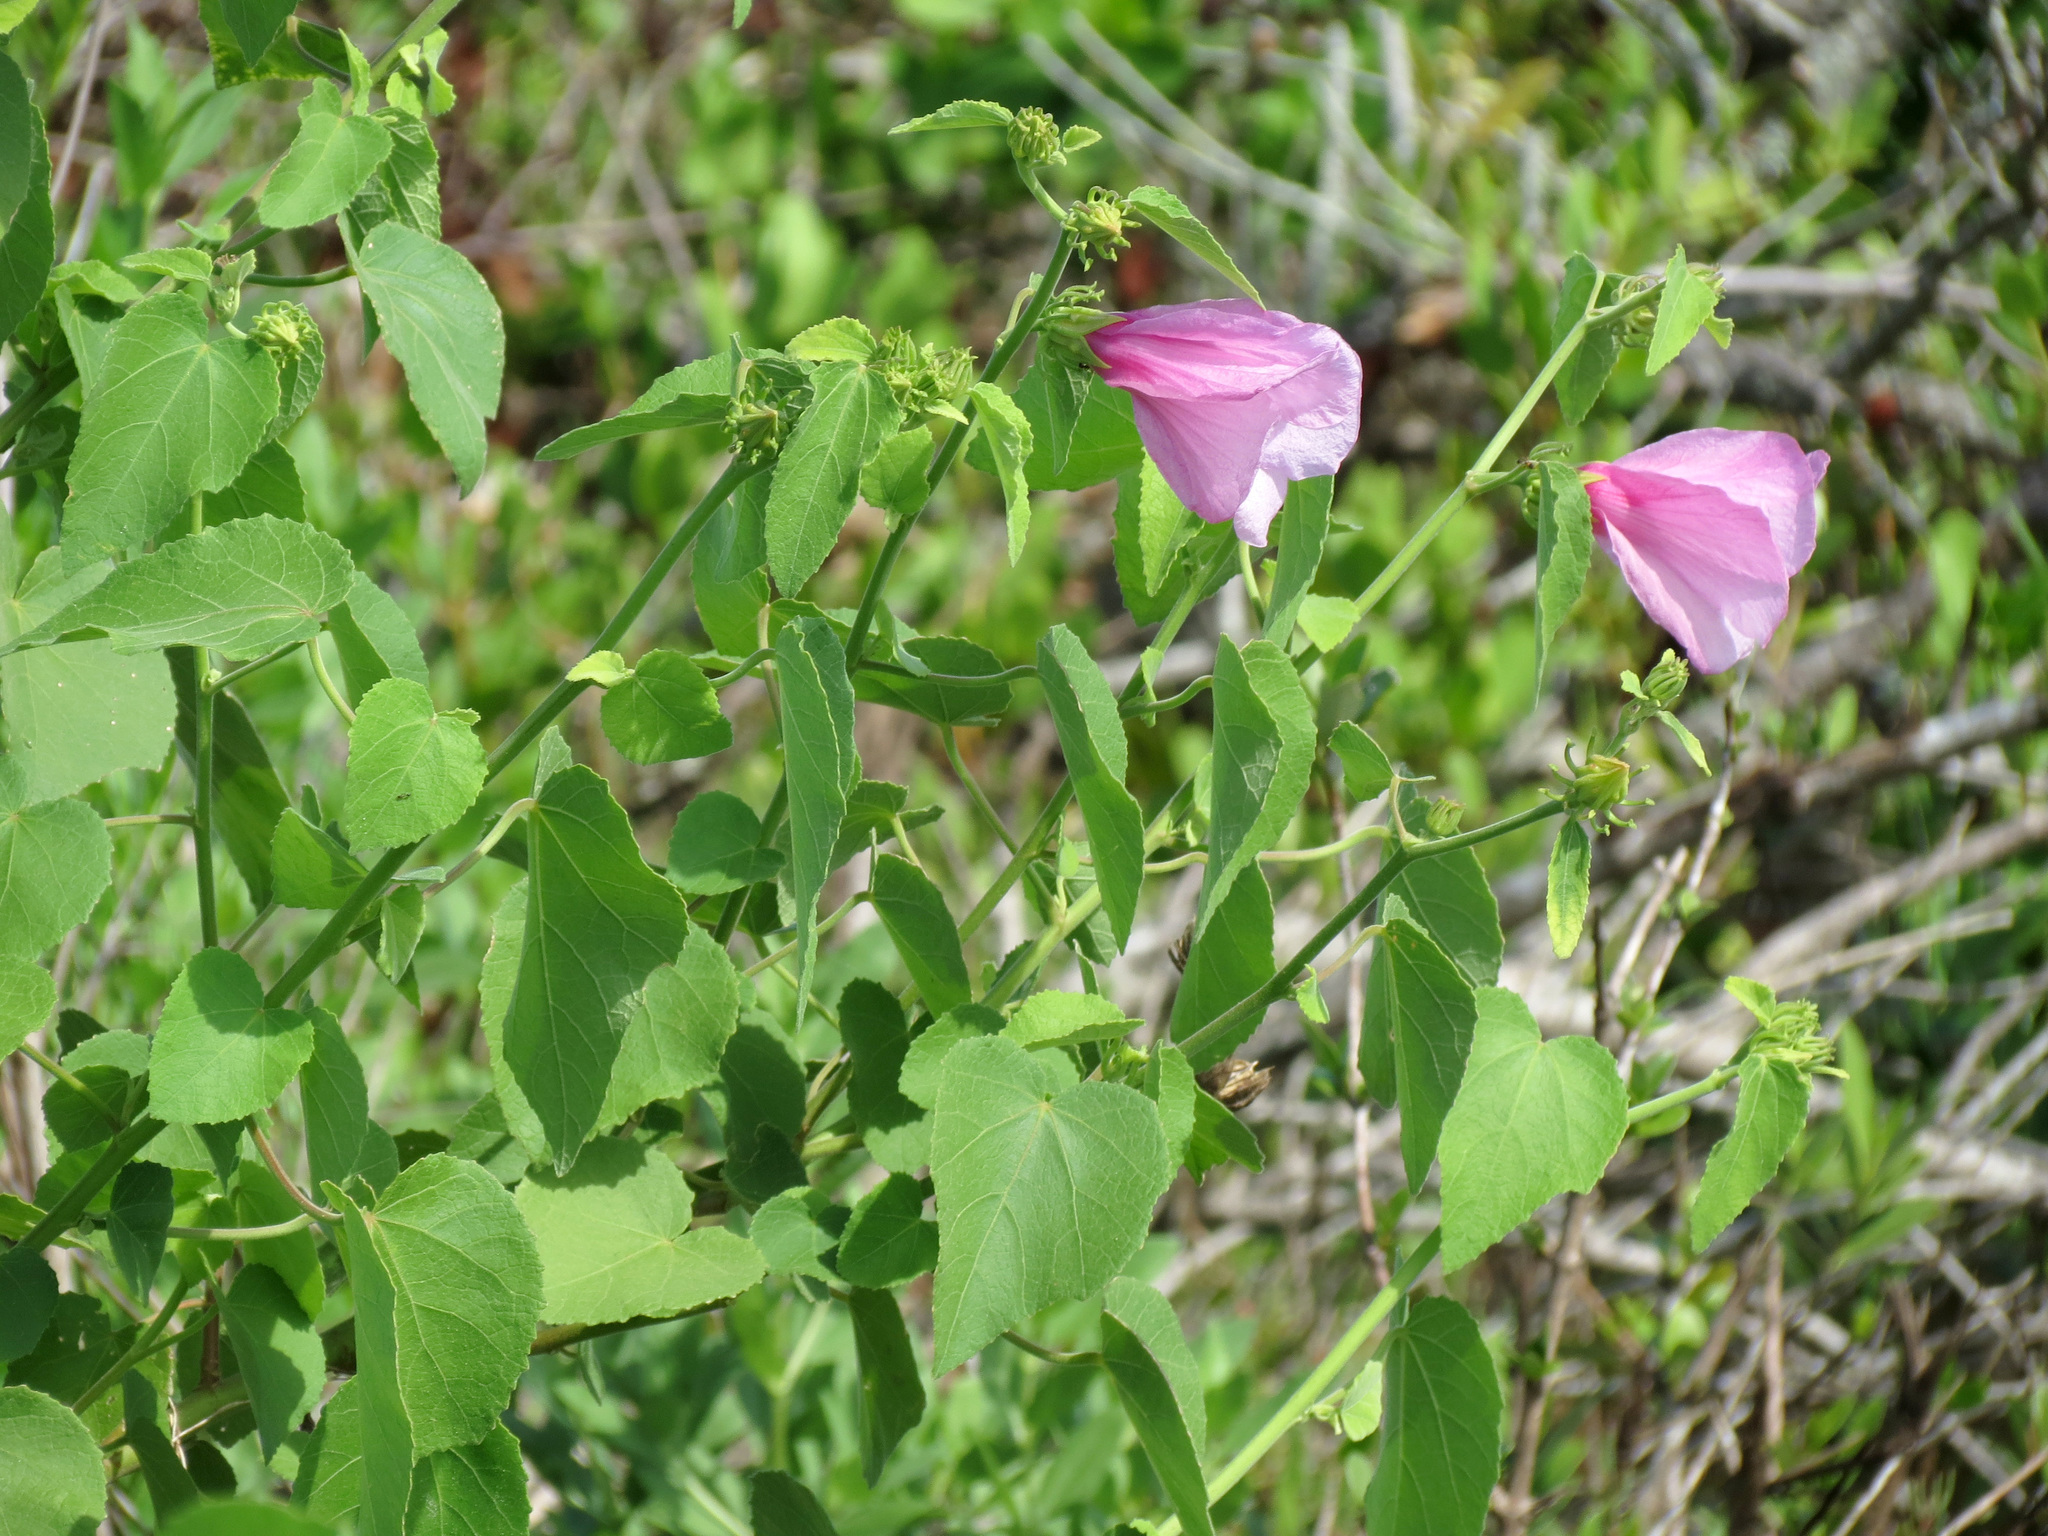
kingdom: Plantae
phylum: Tracheophyta
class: Magnoliopsida
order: Malvales
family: Malvaceae
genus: Hibiscus
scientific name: Hibiscus furcellatus
